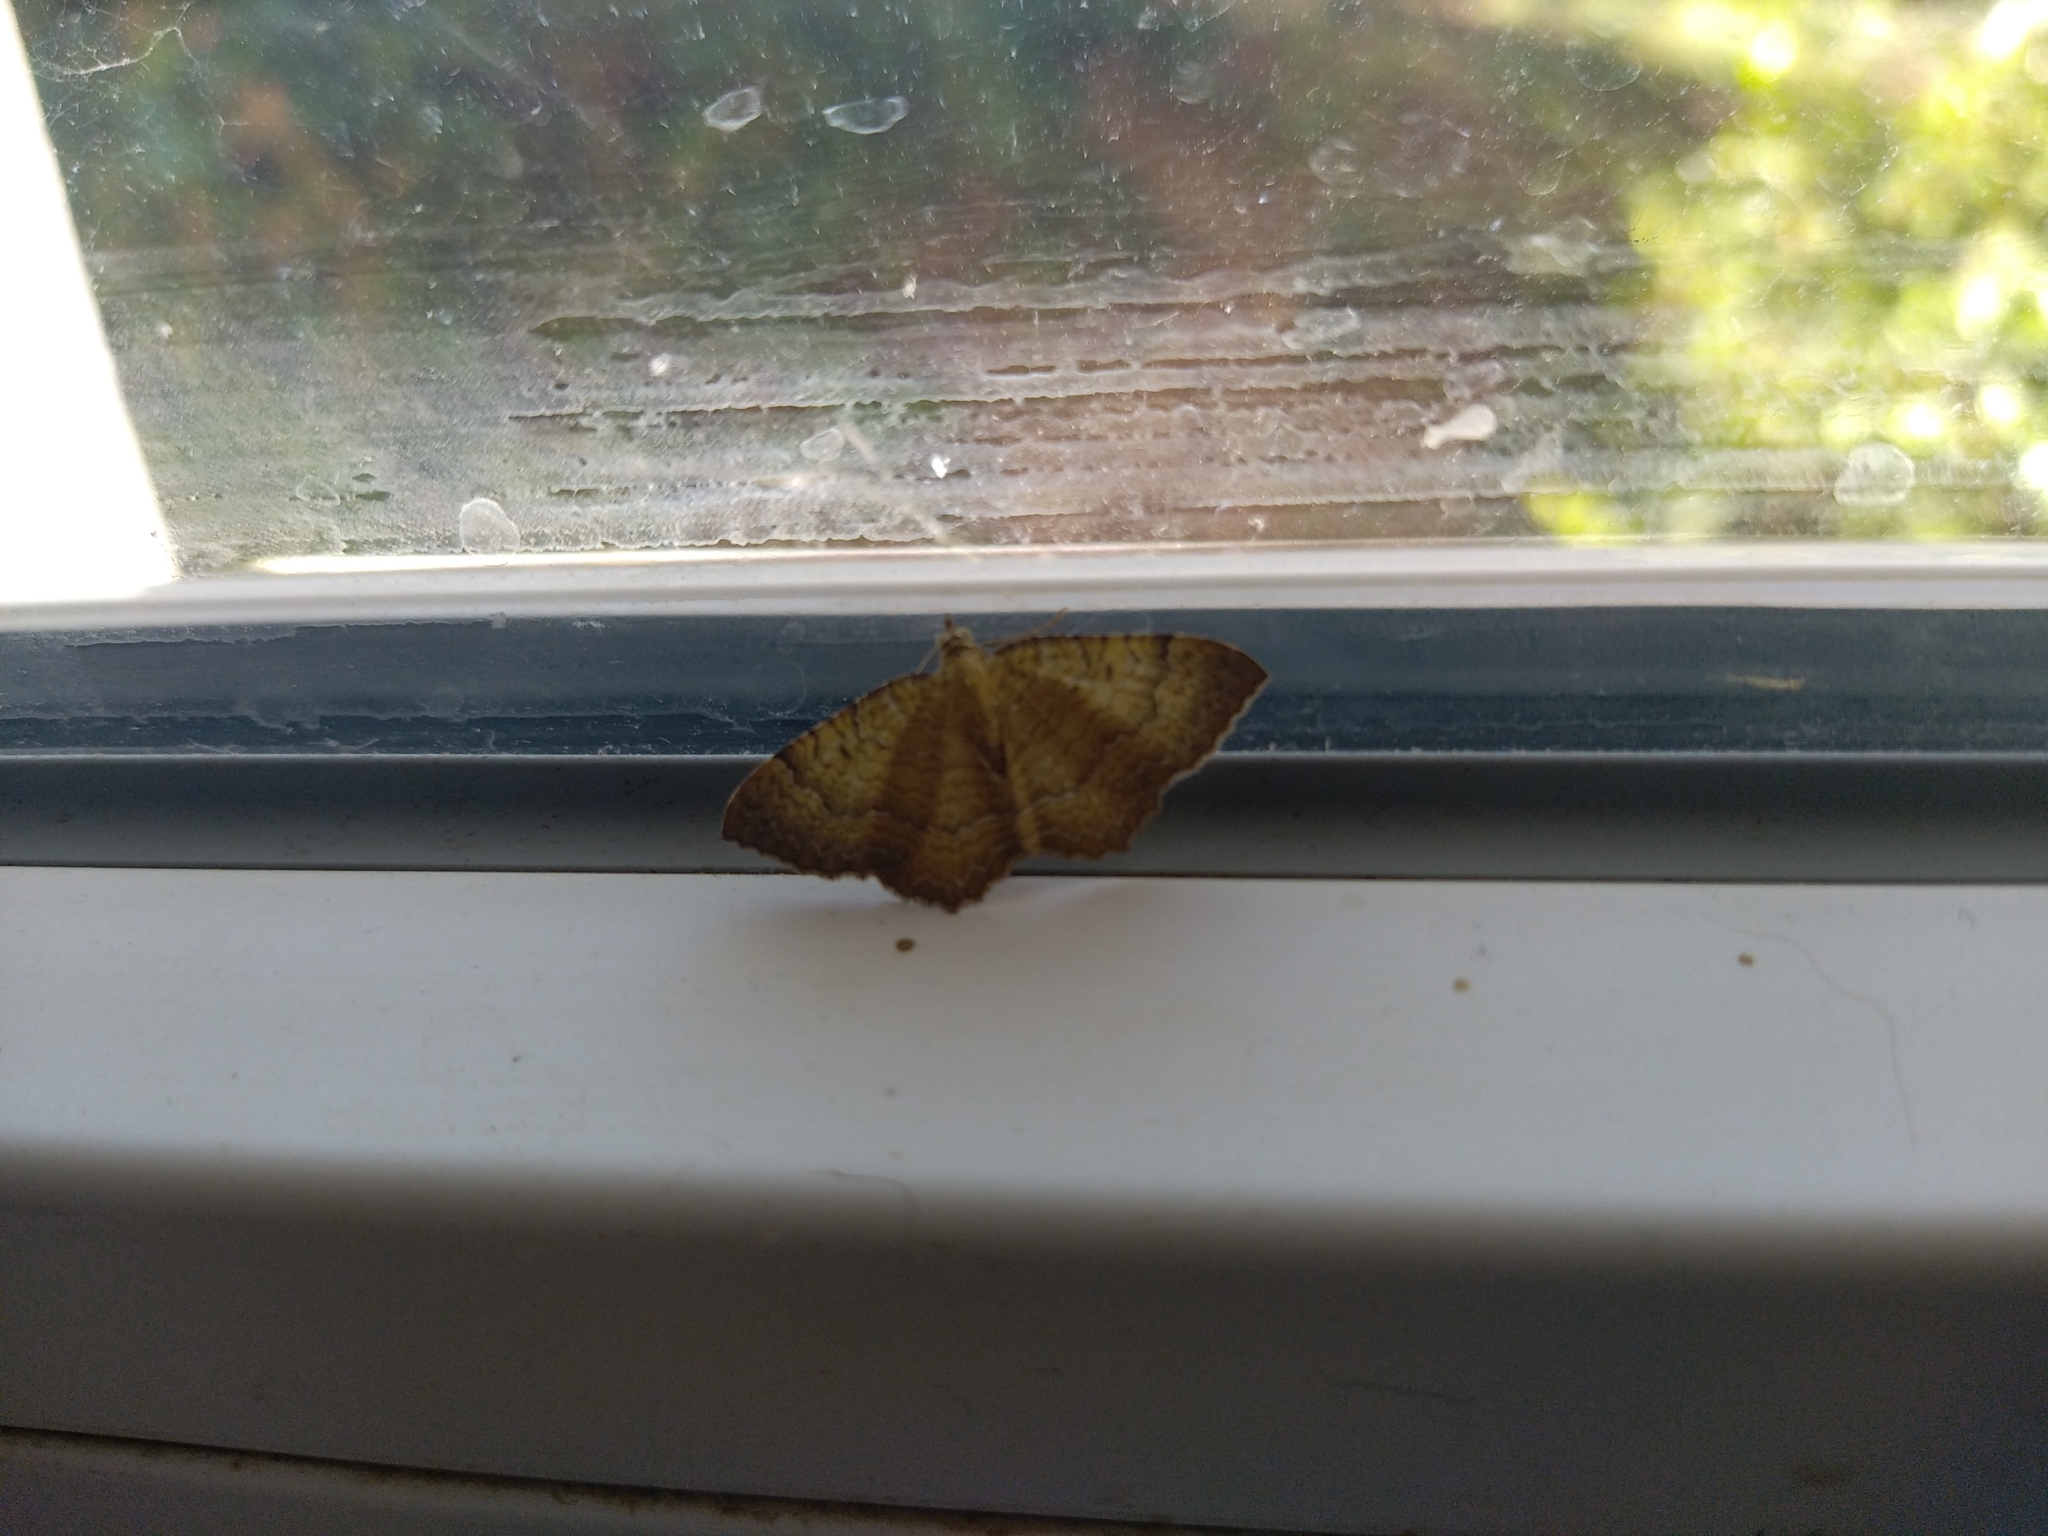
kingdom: Animalia
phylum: Arthropoda
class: Insecta
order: Lepidoptera
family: Geometridae
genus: Camptogramma
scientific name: Camptogramma bilineata
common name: Yellow shell
